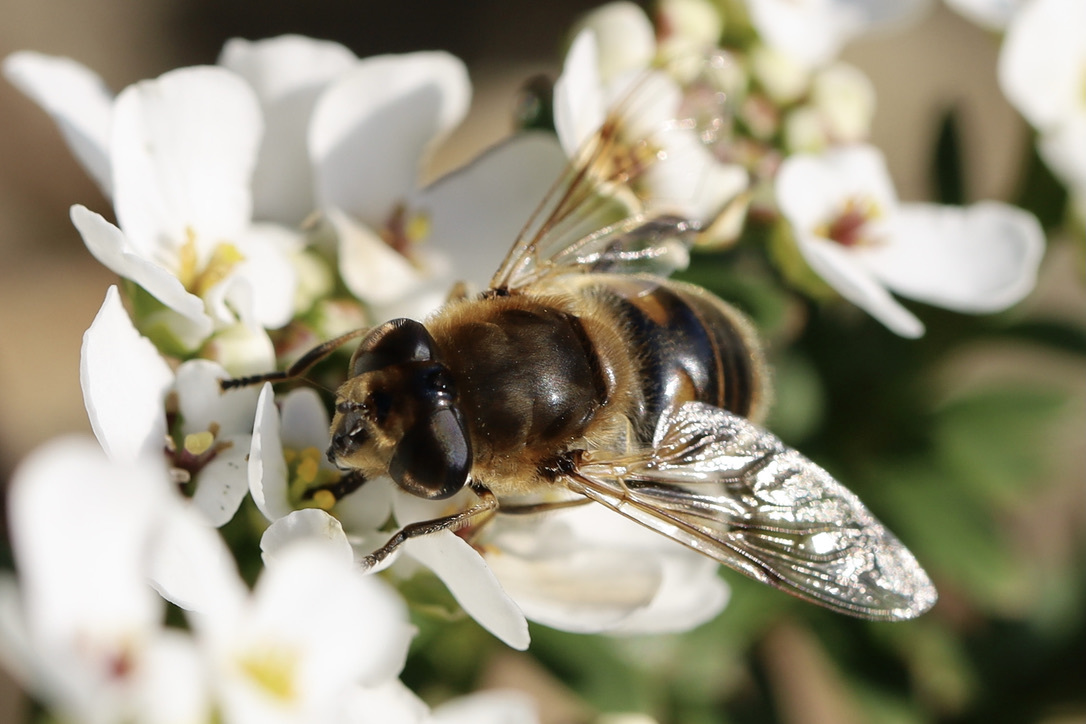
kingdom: Animalia
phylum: Arthropoda
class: Insecta
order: Diptera
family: Syrphidae
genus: Eristalis
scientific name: Eristalis tenax
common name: Drone fly
